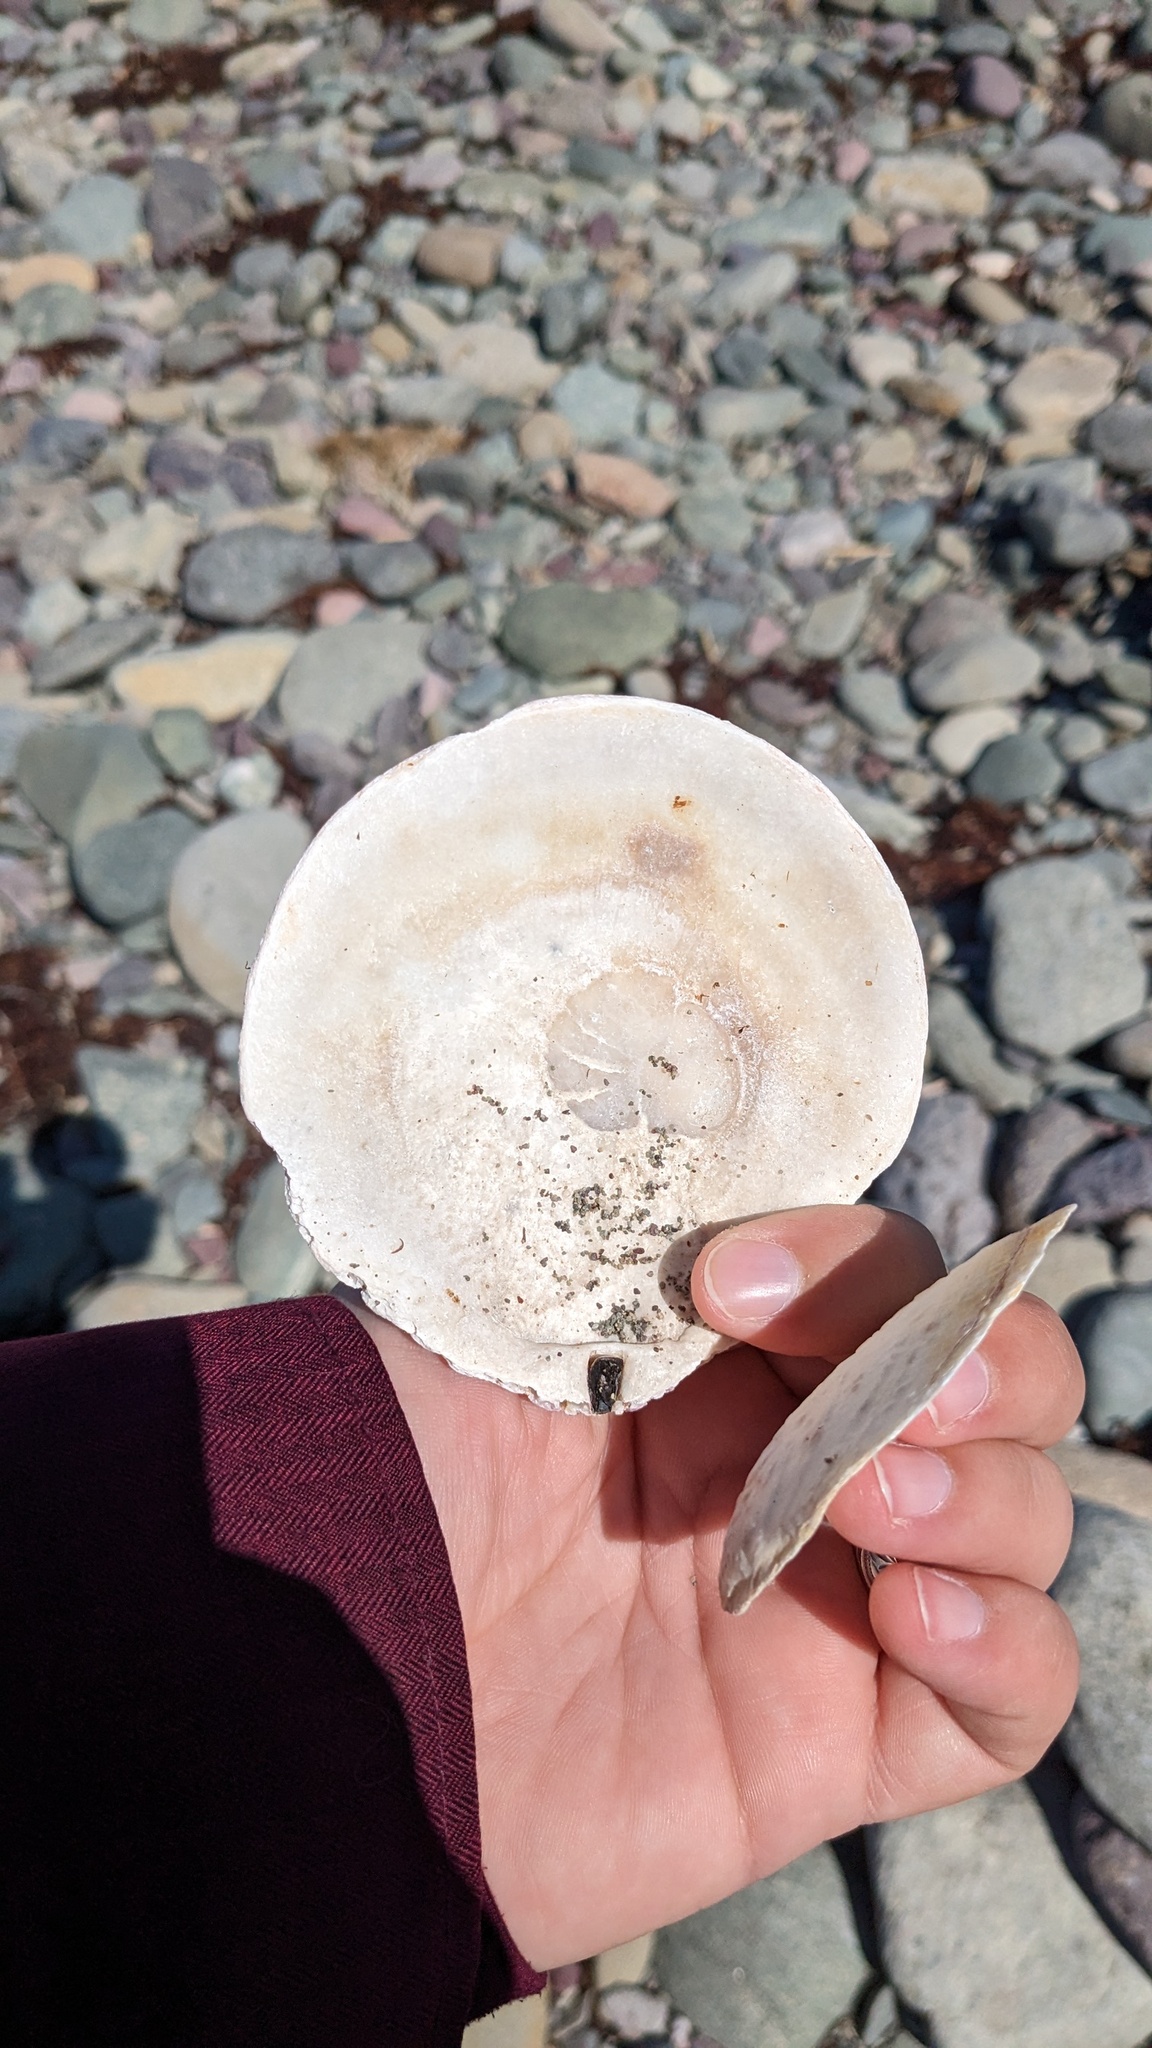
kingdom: Animalia
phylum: Mollusca
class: Bivalvia
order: Pectinida
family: Pectinidae
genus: Placopecten
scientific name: Placopecten magellanicus
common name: American sea scallop
